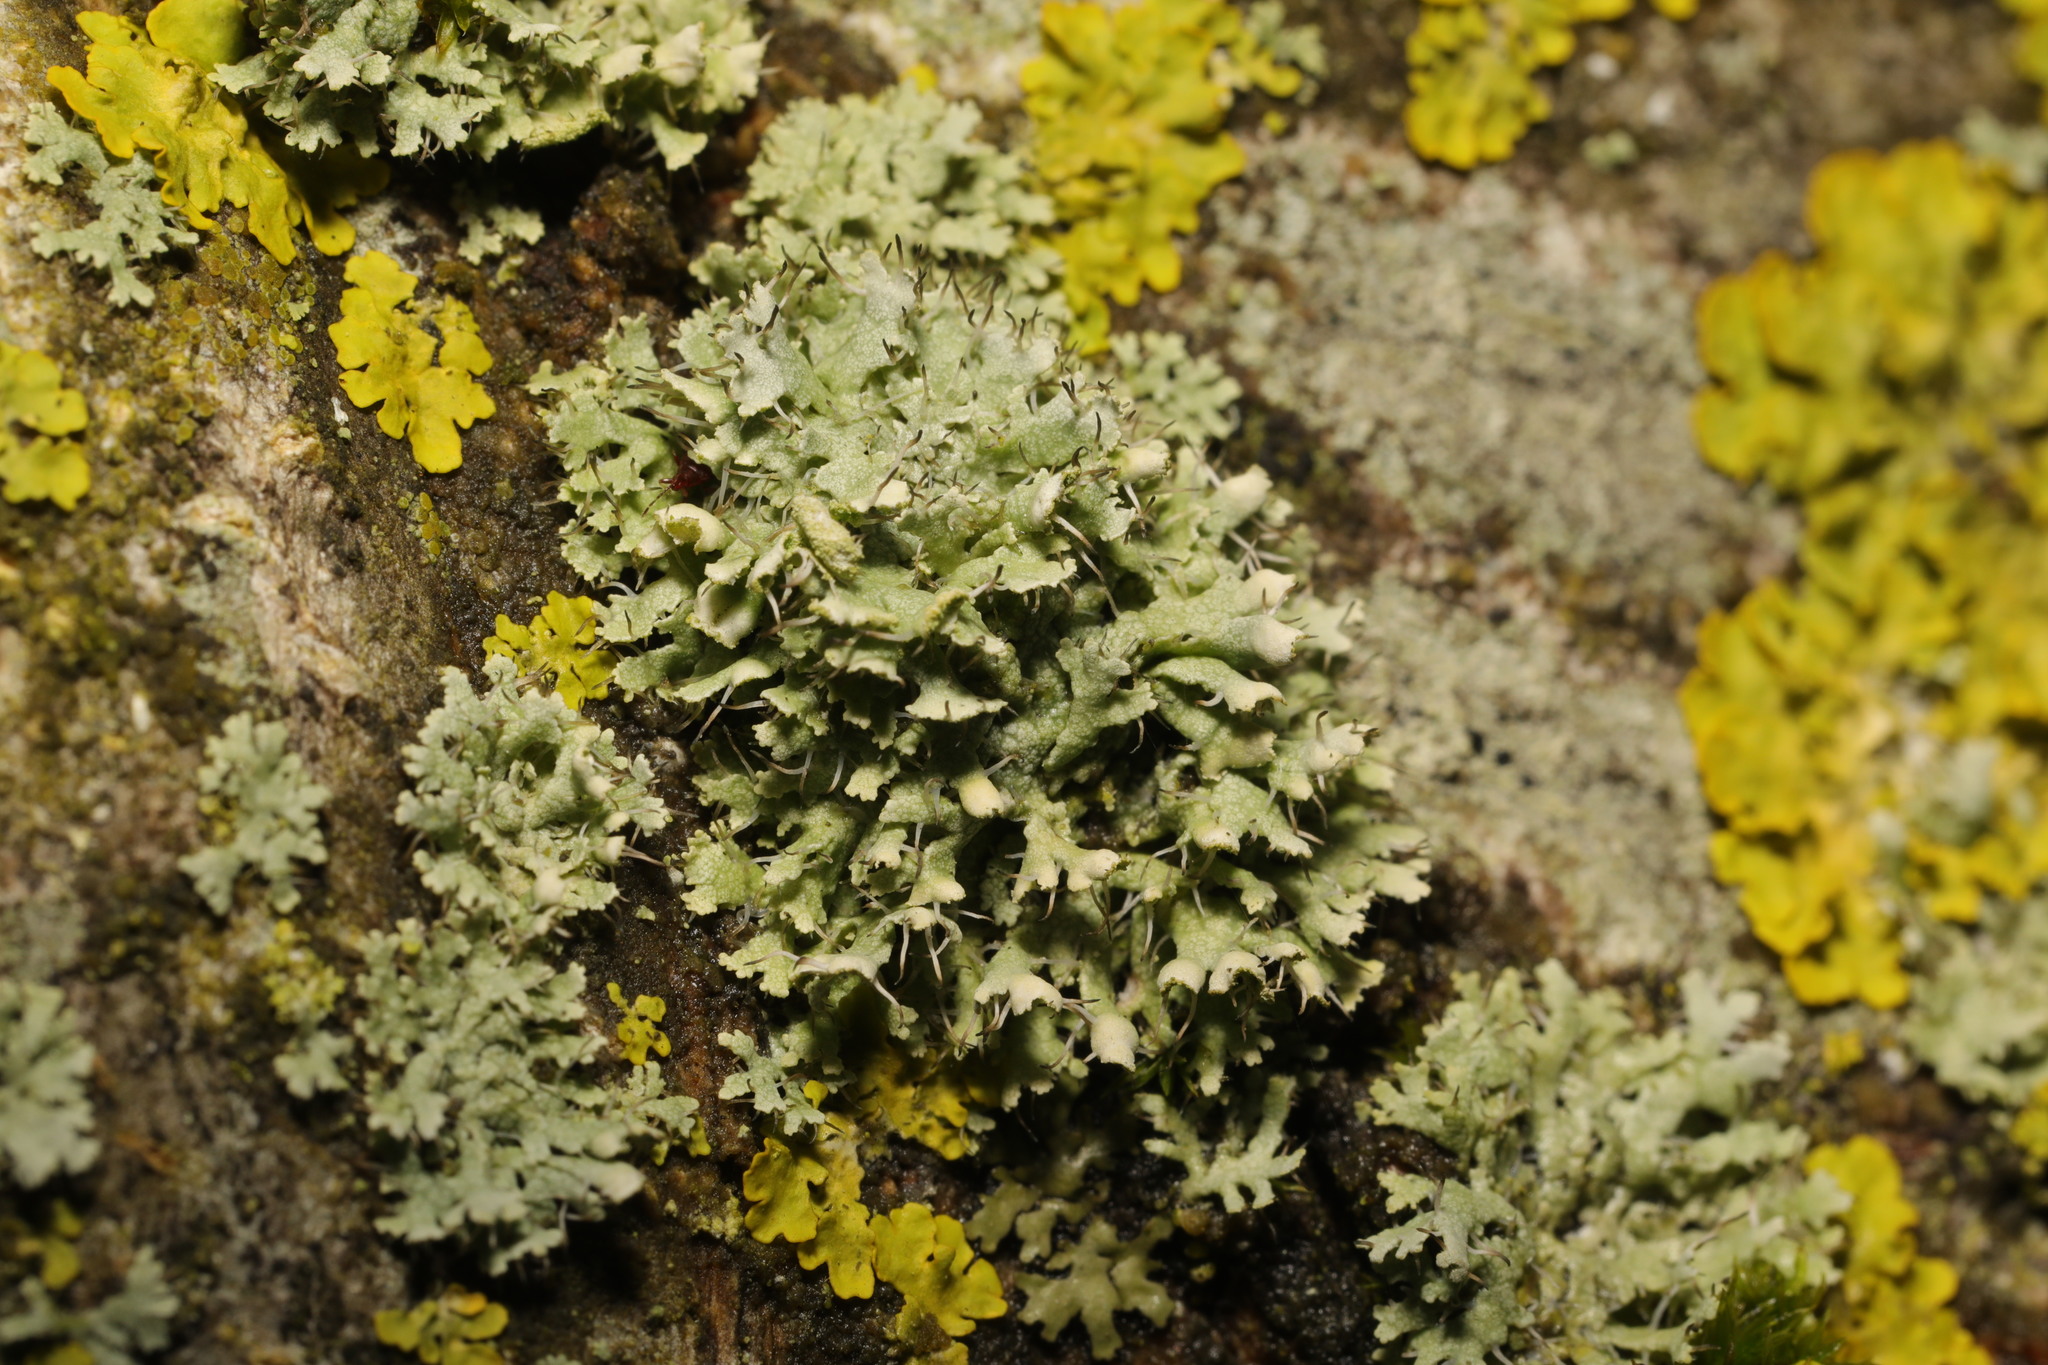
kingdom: Fungi
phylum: Ascomycota
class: Lecanoromycetes
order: Caliciales
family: Physciaceae
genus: Physcia
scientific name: Physcia adscendens
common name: Hooded rosette lichen
